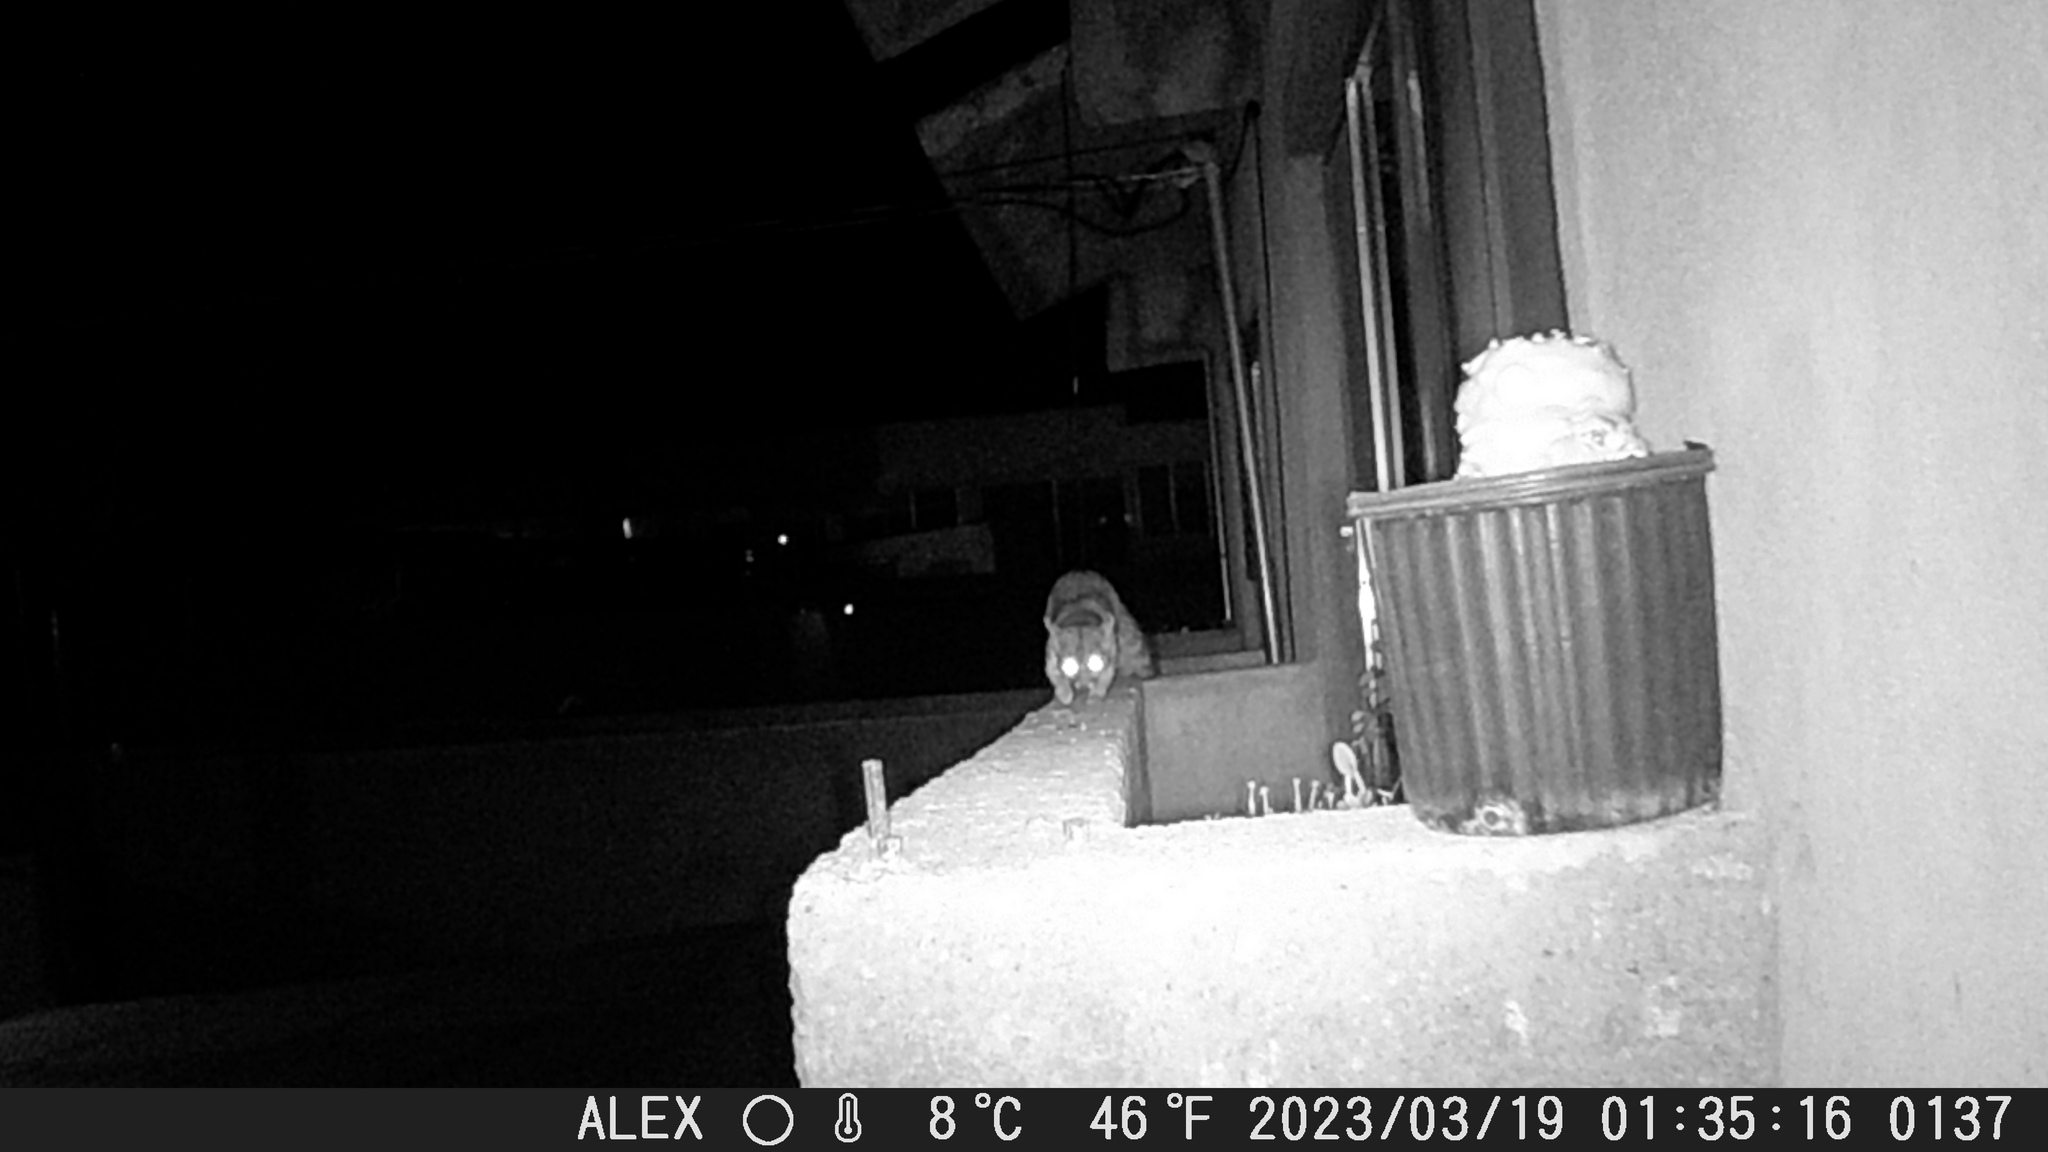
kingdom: Animalia
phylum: Chordata
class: Mammalia
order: Carnivora
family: Procyonidae
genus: Bassariscus
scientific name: Bassariscus astutus
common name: Ringtail
